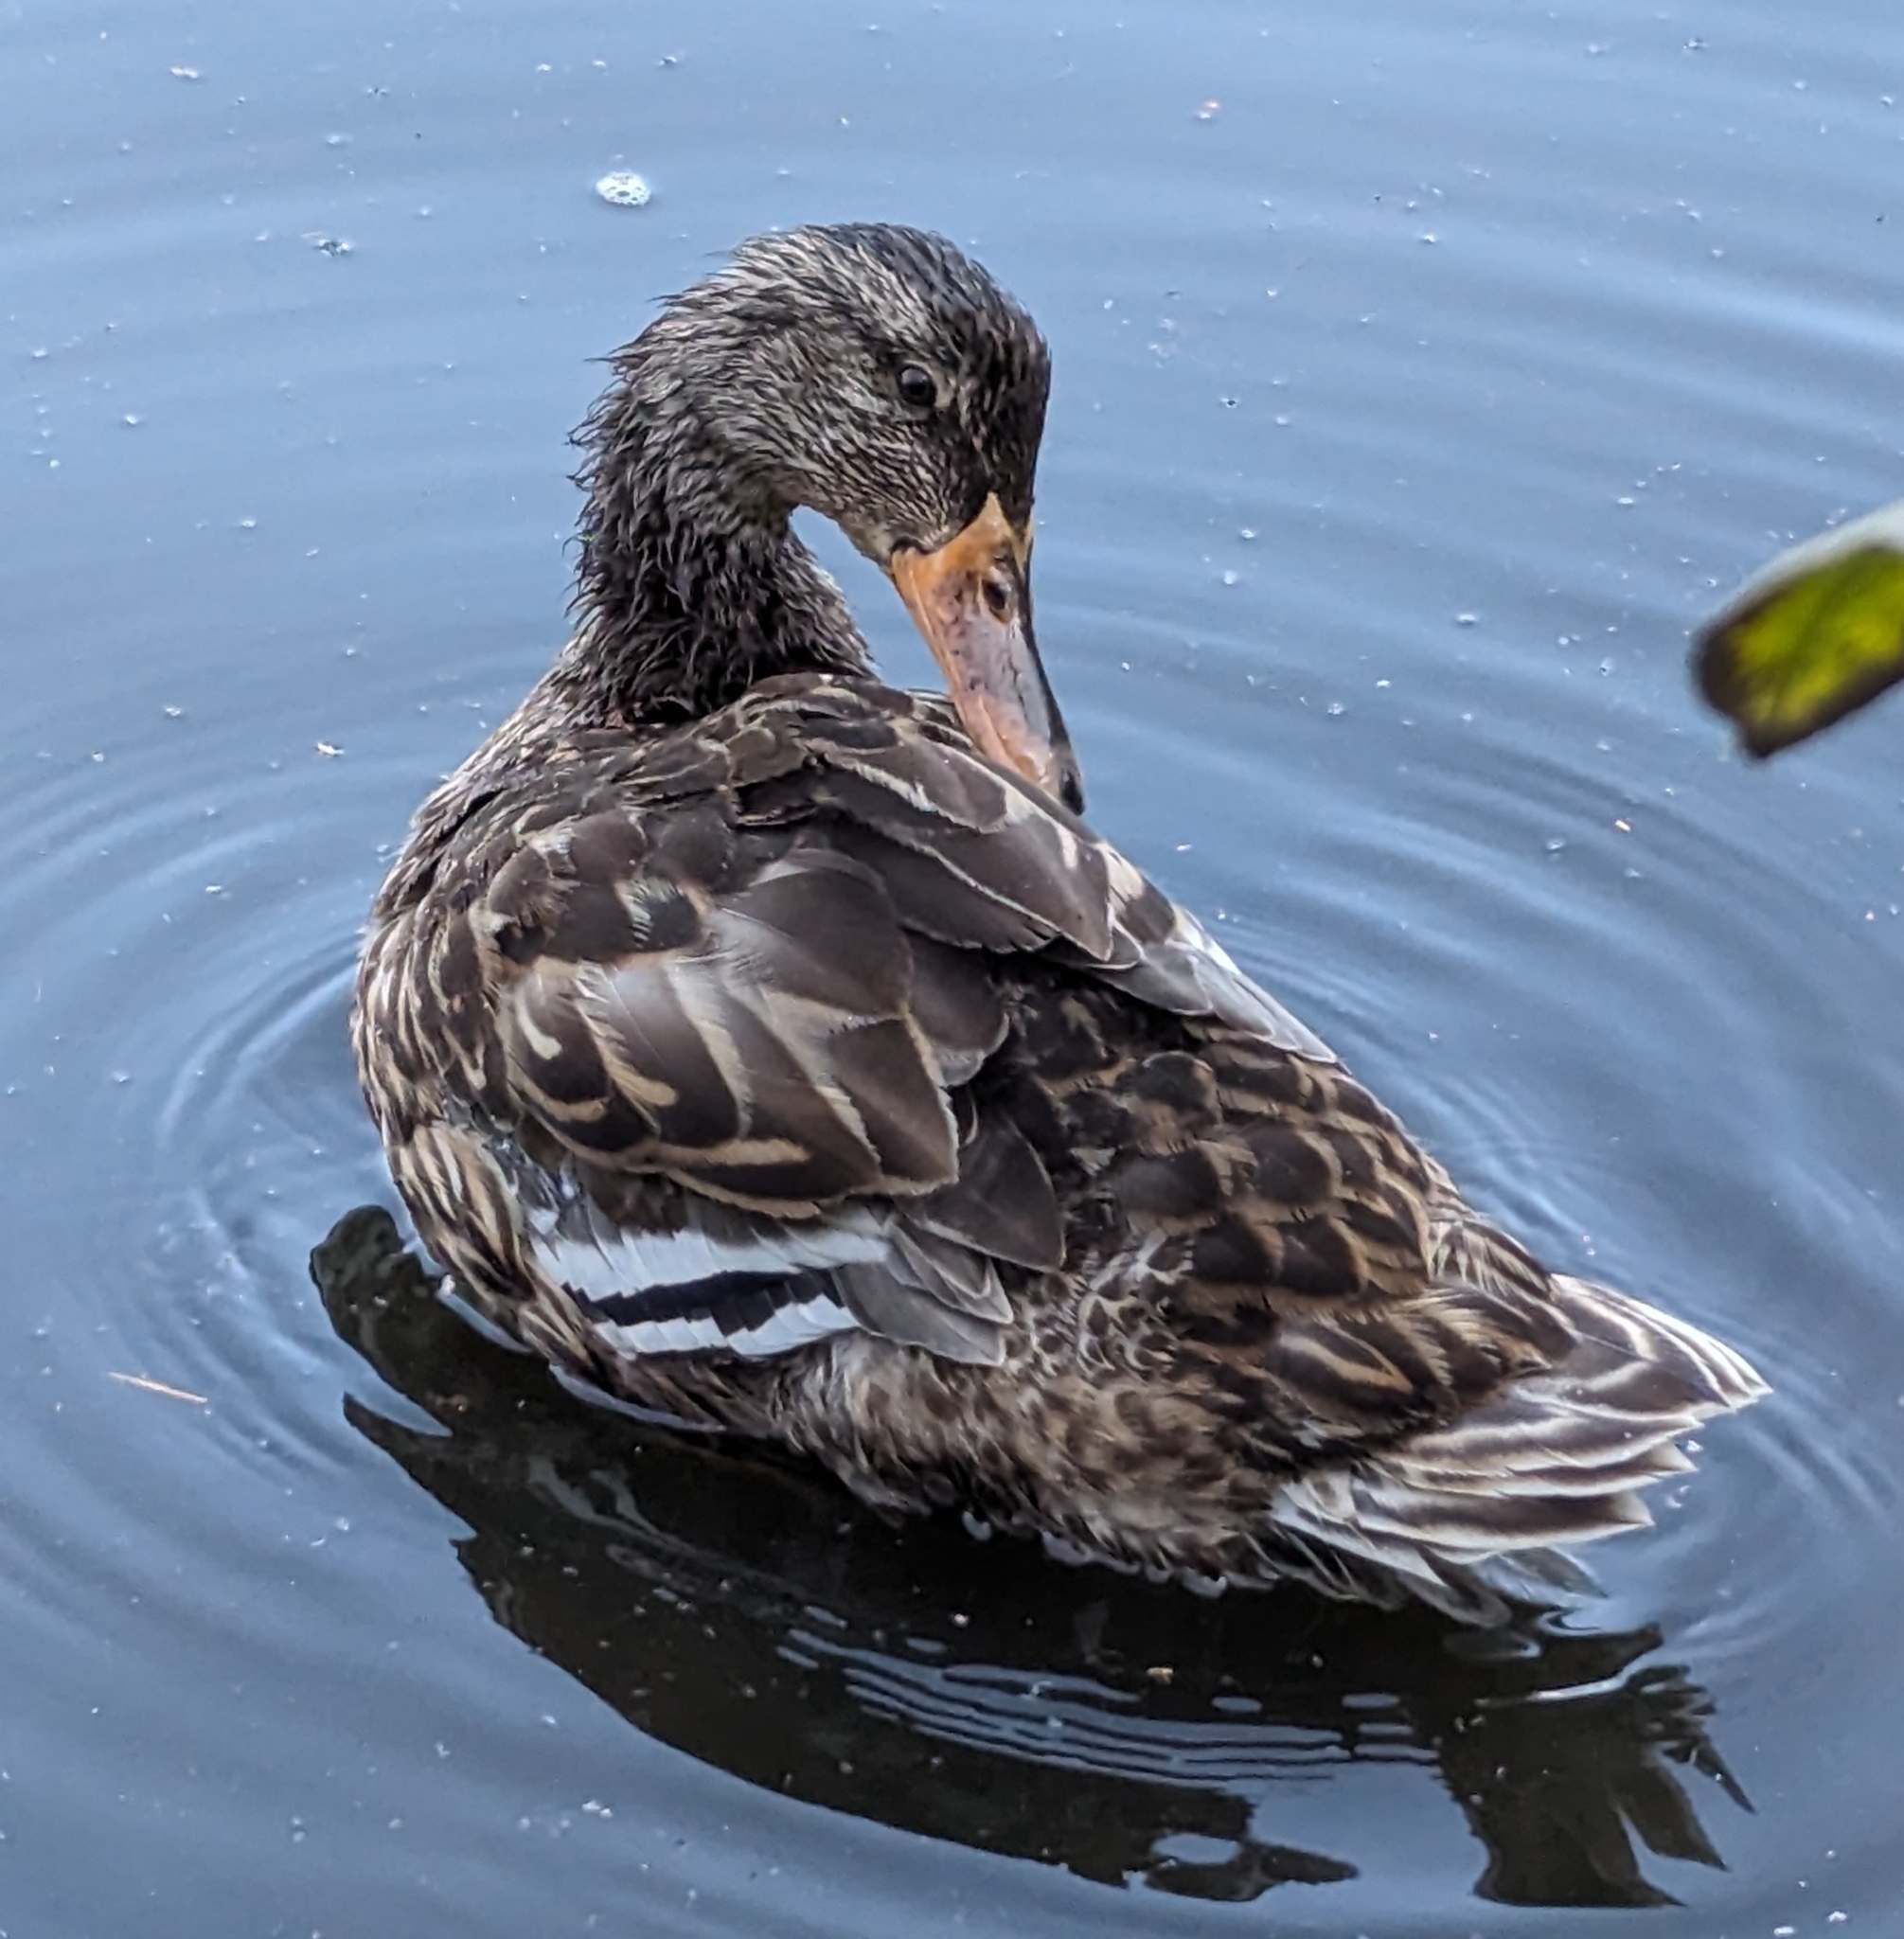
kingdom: Animalia
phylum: Chordata
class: Aves
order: Anseriformes
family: Anatidae
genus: Anas
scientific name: Anas platyrhynchos
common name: Mallard
